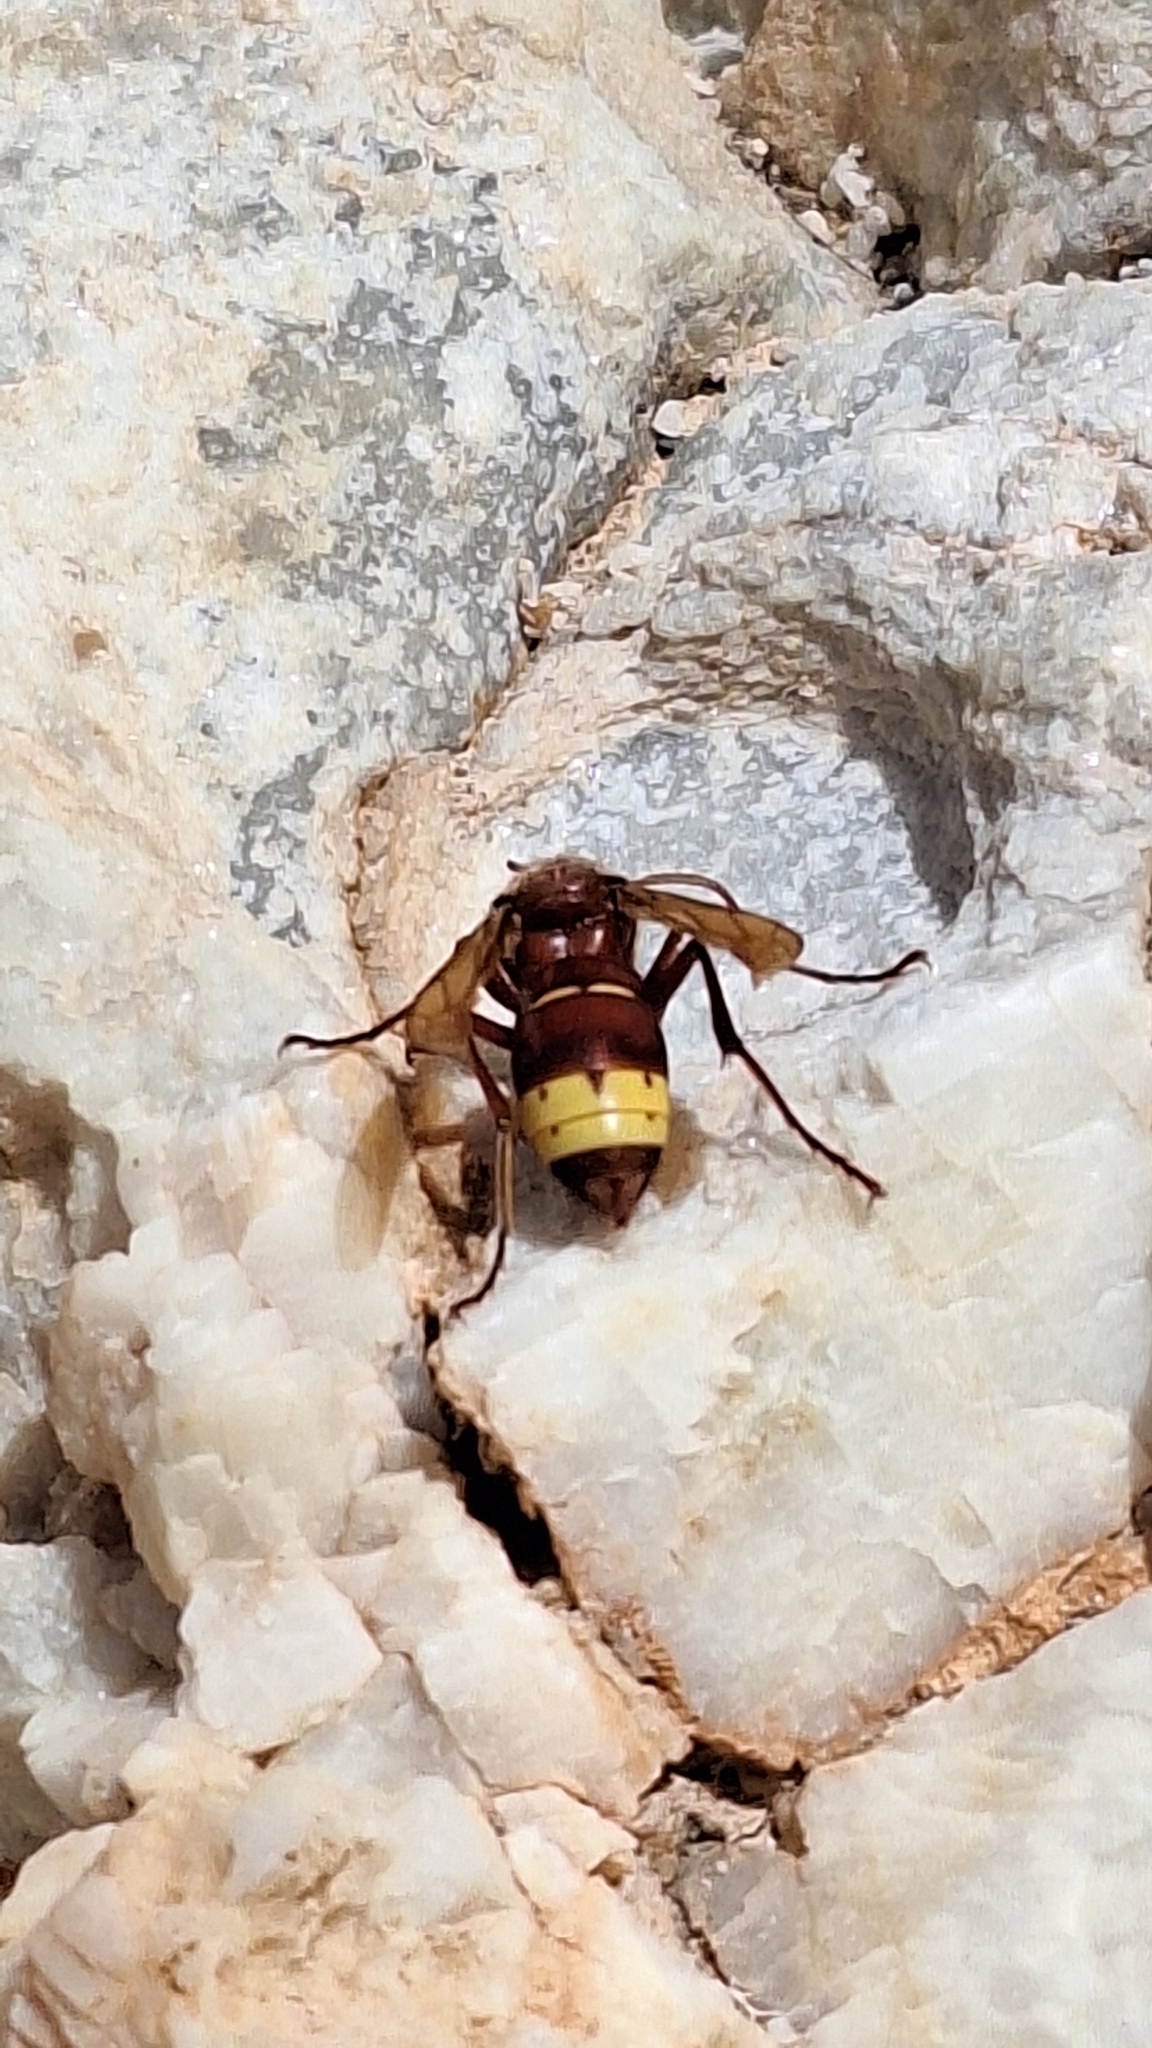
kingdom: Animalia
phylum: Arthropoda
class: Insecta
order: Hymenoptera
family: Vespidae
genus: Vespa
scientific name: Vespa orientalis
